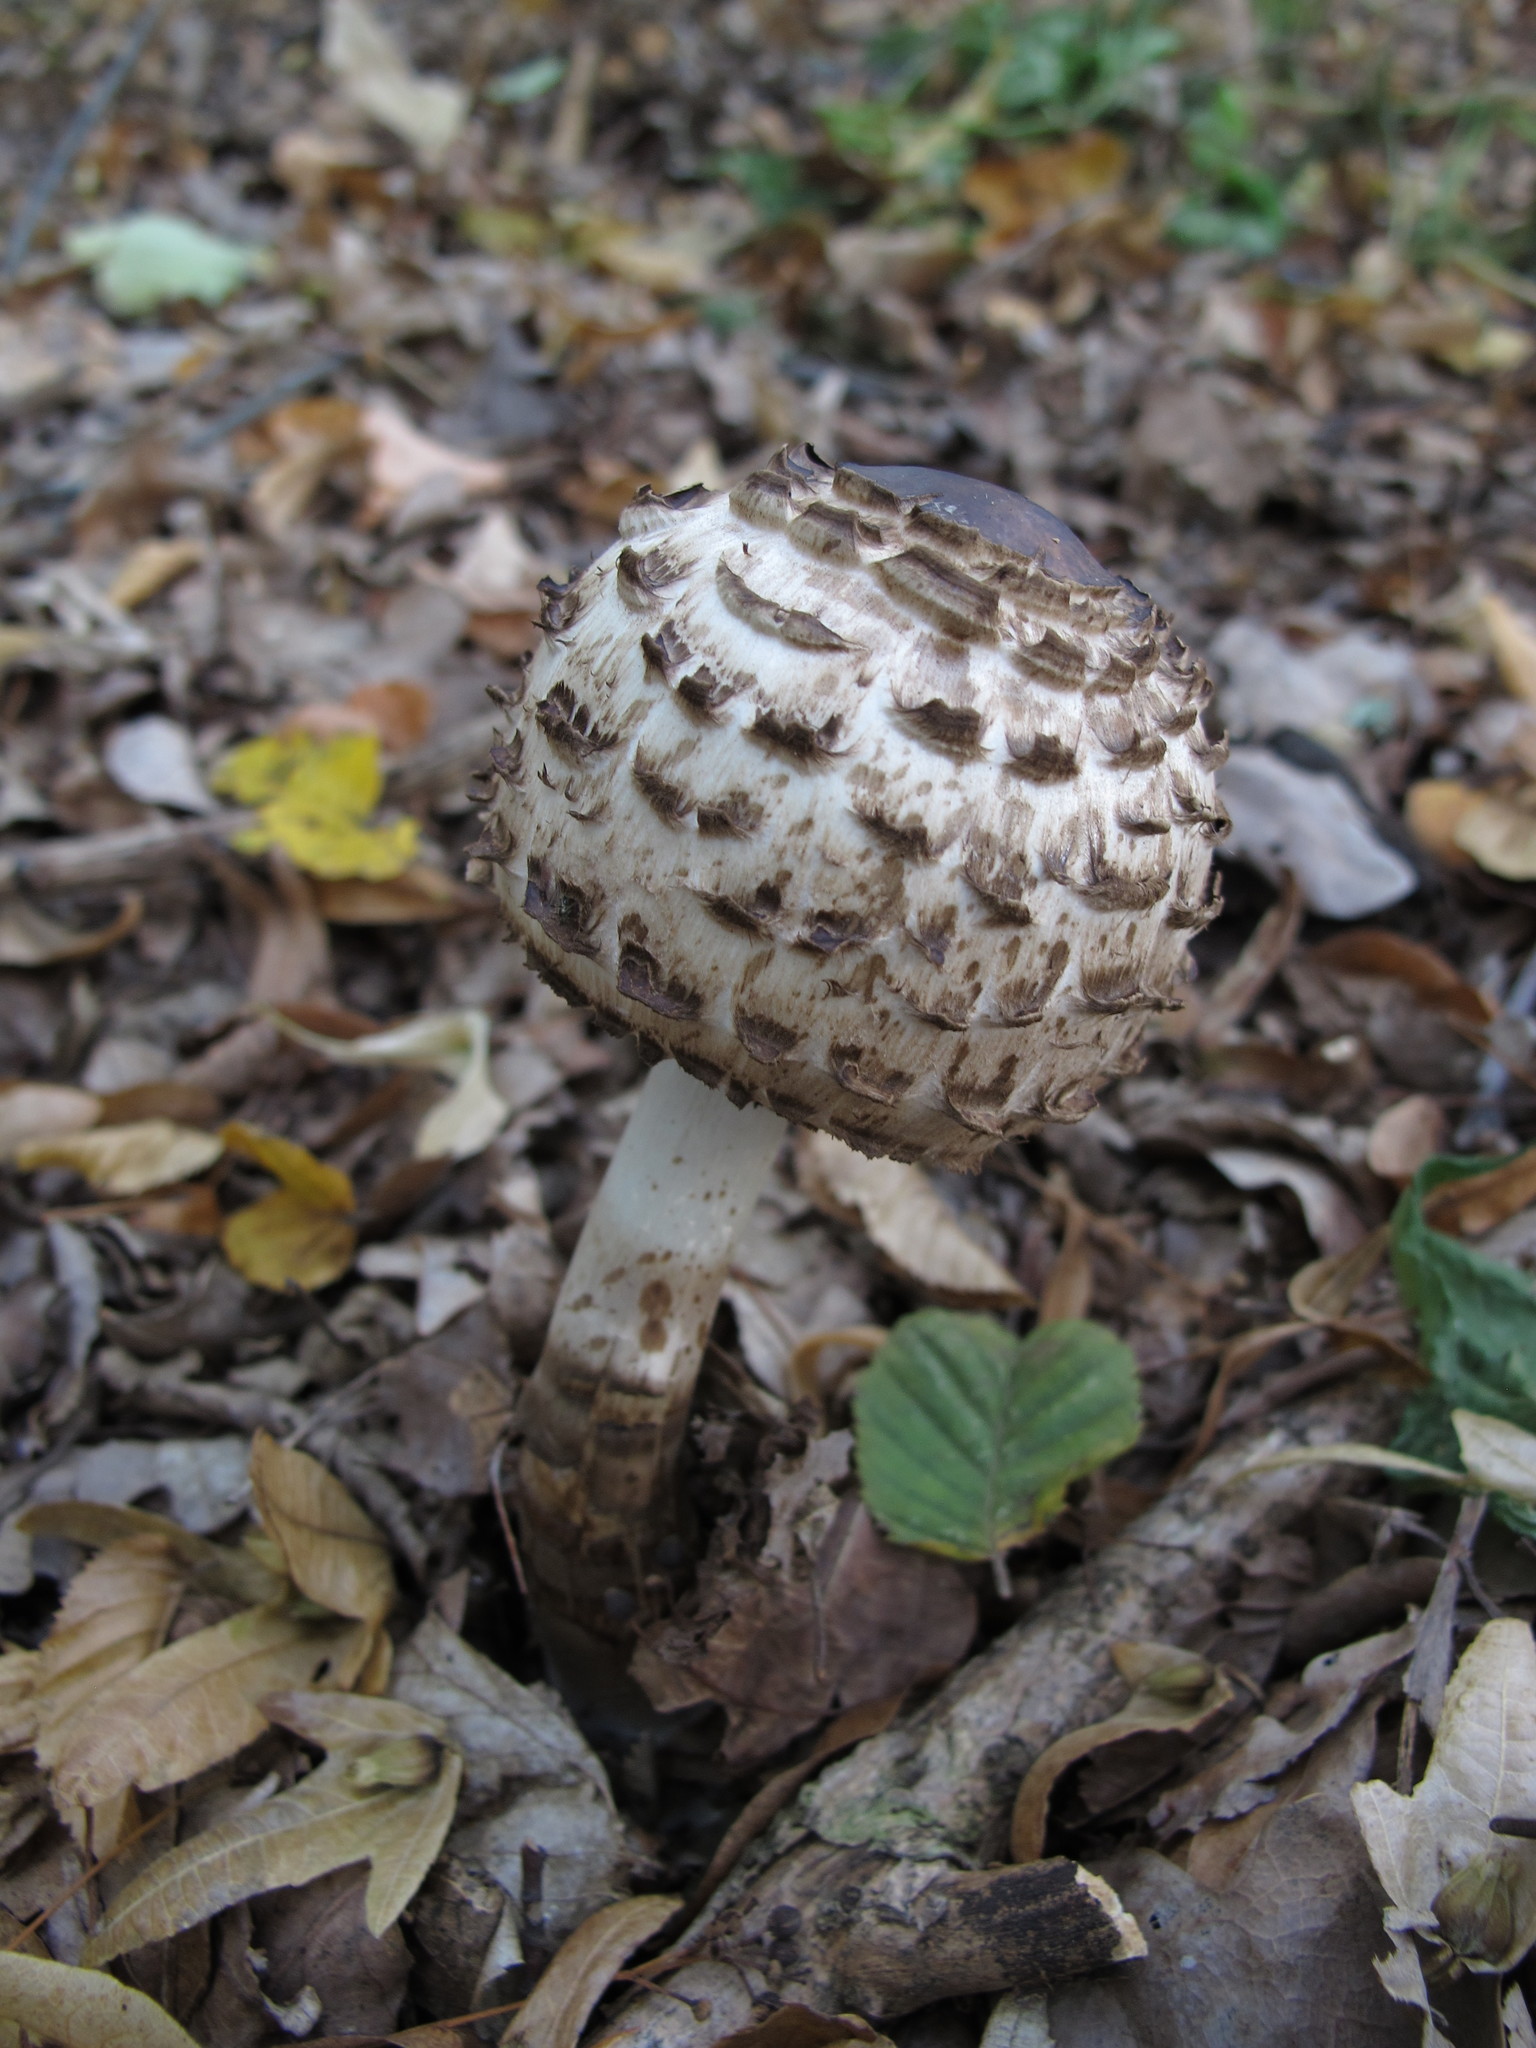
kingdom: Fungi
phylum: Basidiomycota
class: Agaricomycetes
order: Agaricales
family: Agaricaceae
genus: Chlorophyllum
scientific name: Chlorophyllum olivieri
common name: Conifer parasol
